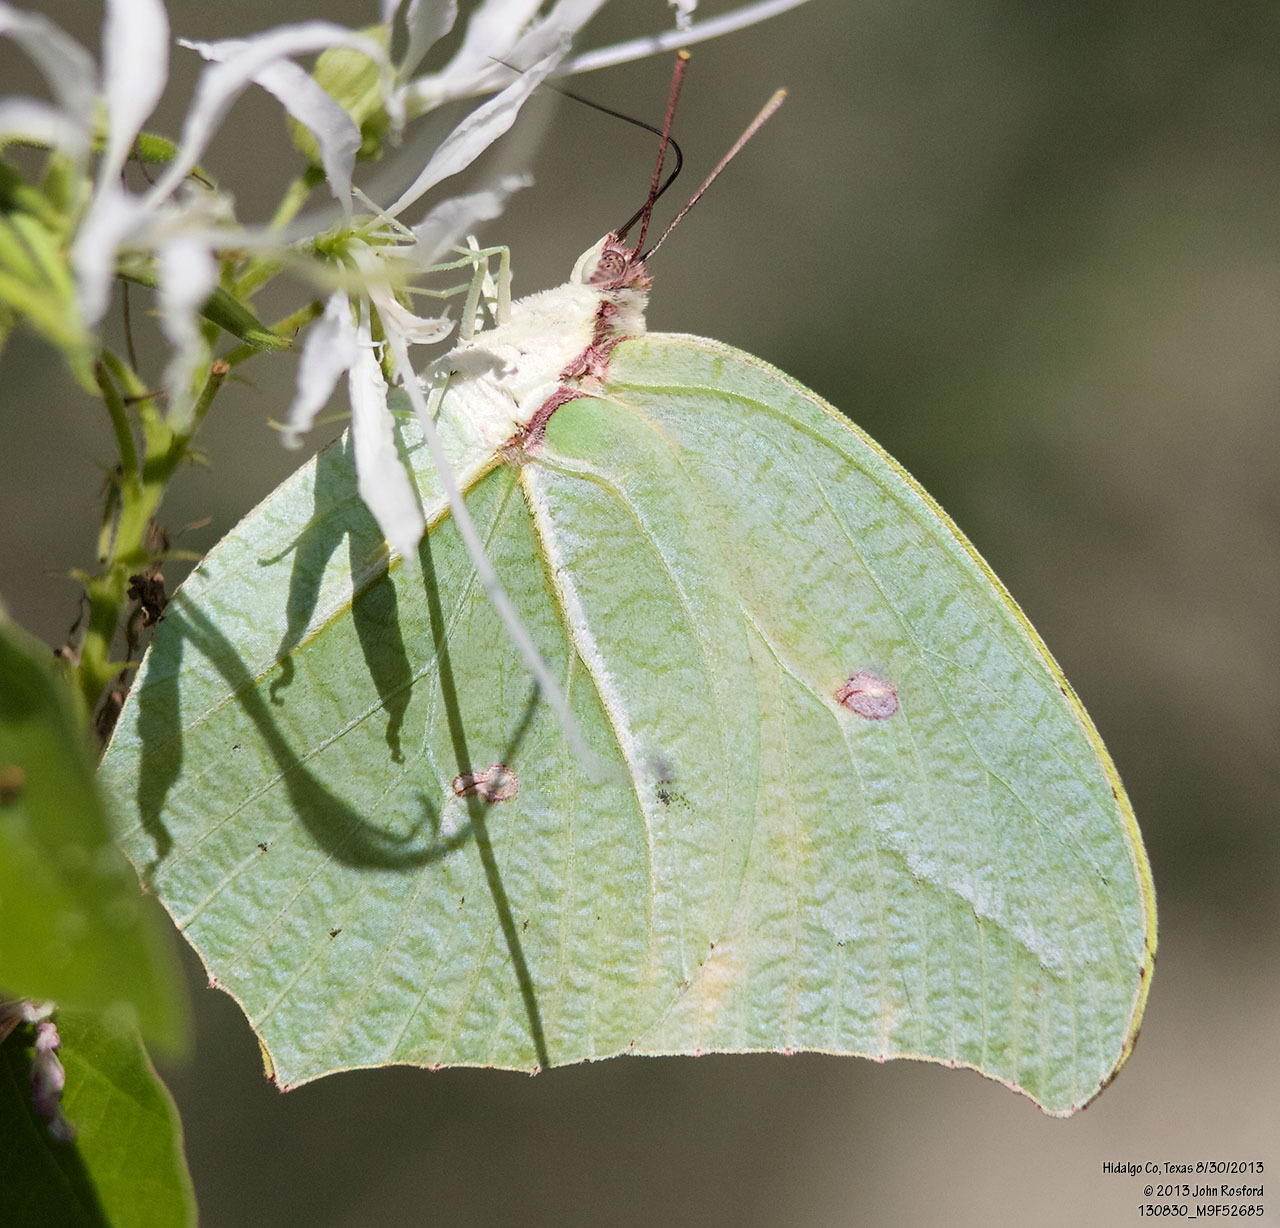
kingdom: Animalia
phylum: Arthropoda
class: Insecta
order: Lepidoptera
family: Pieridae
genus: Anteos
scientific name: Anteos maerula
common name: Angled sulphur
